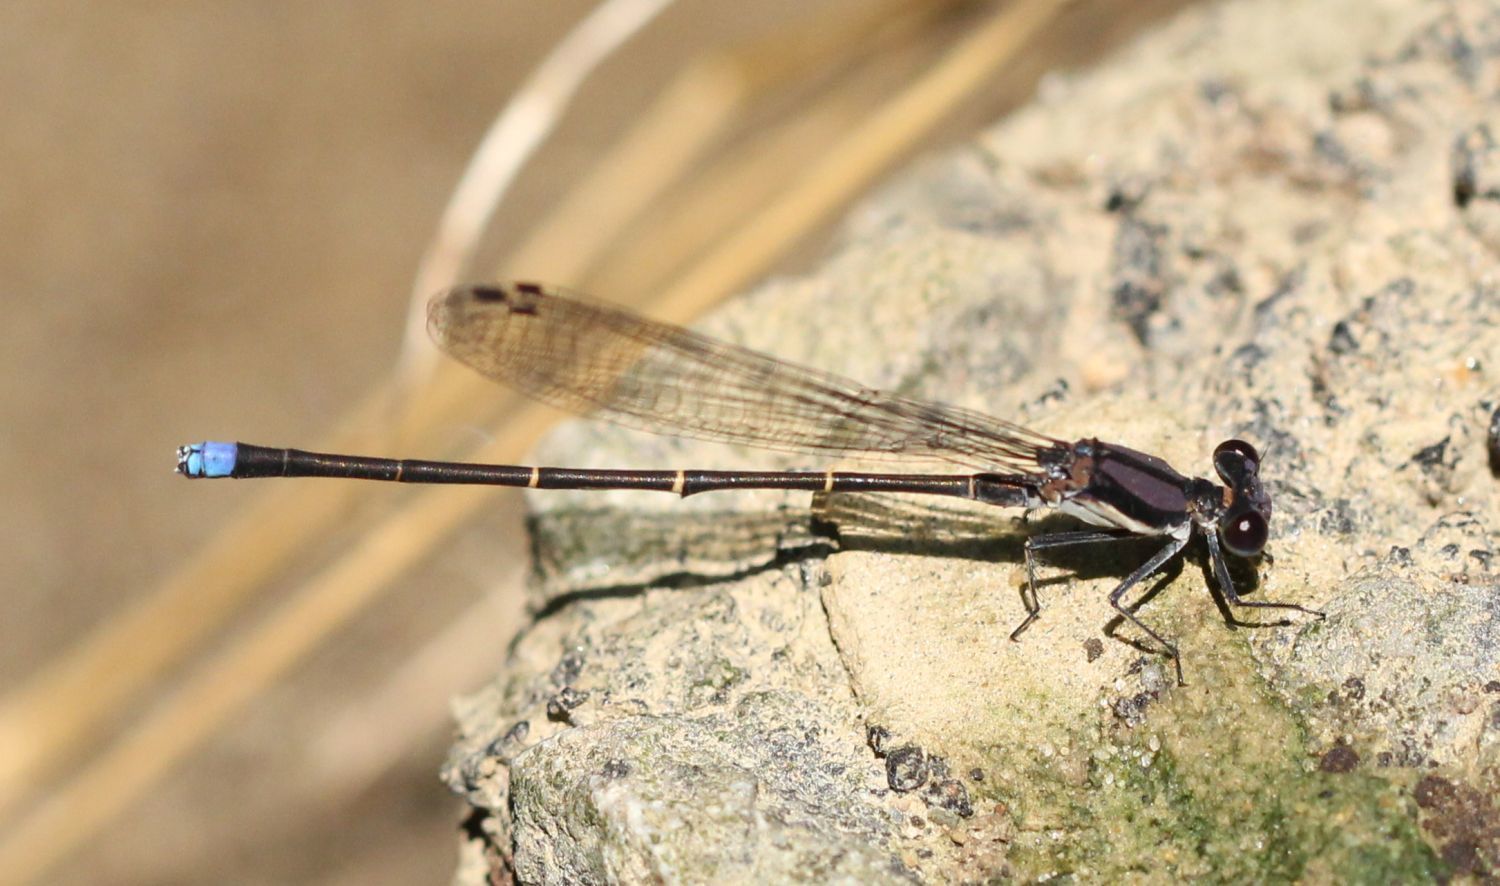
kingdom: Animalia
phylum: Arthropoda
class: Insecta
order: Odonata
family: Coenagrionidae
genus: Argia
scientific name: Argia tibialis
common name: Blue-tipped dancer
